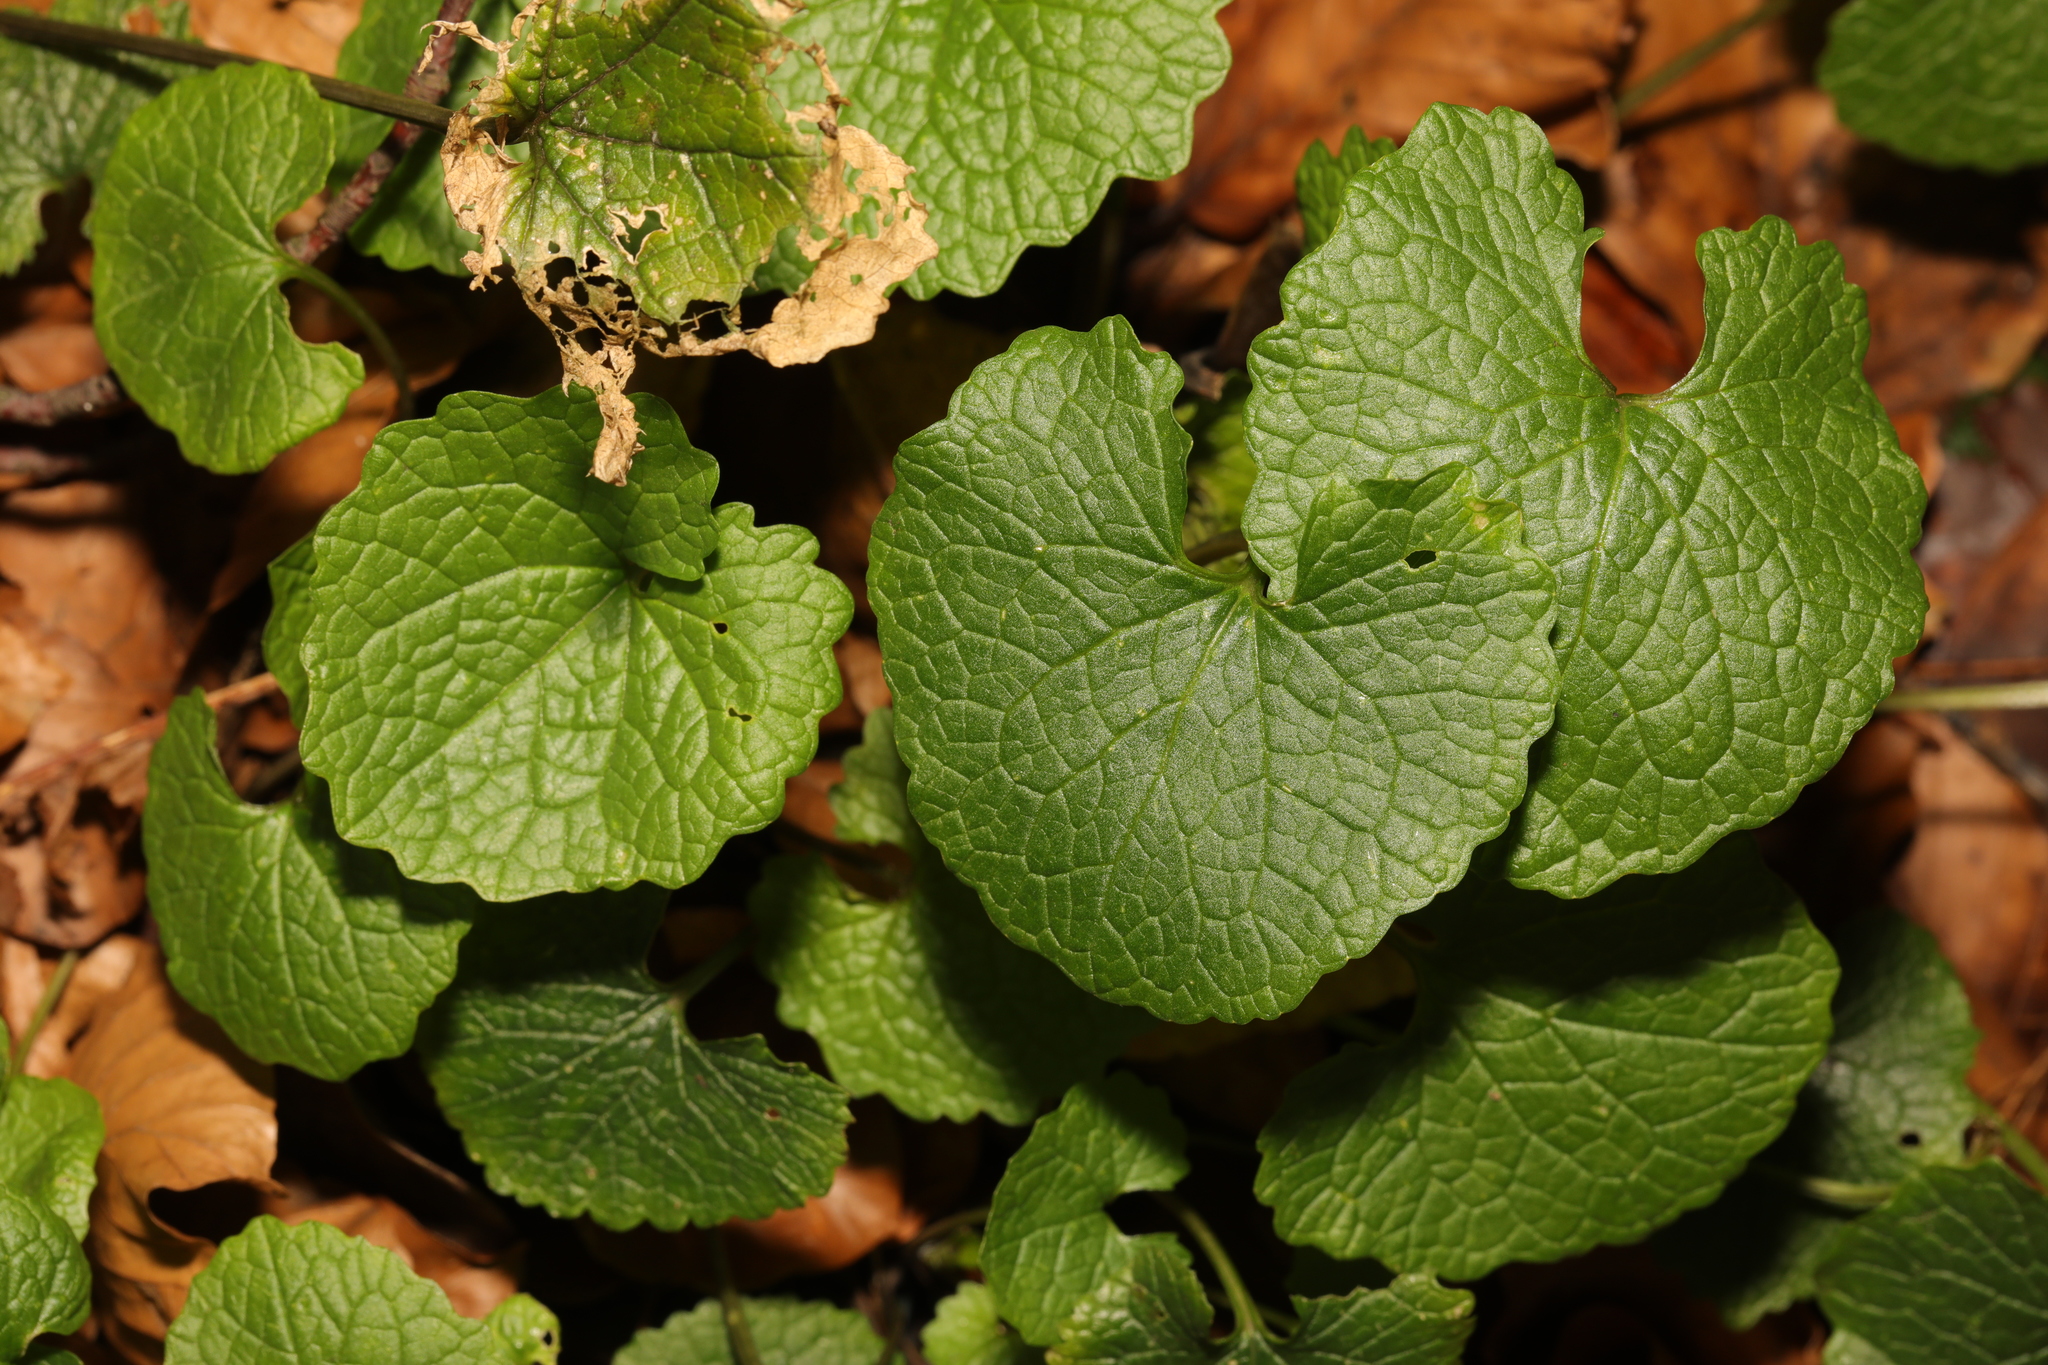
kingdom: Plantae
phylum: Tracheophyta
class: Magnoliopsida
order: Brassicales
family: Brassicaceae
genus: Alliaria
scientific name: Alliaria petiolata
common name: Garlic mustard
